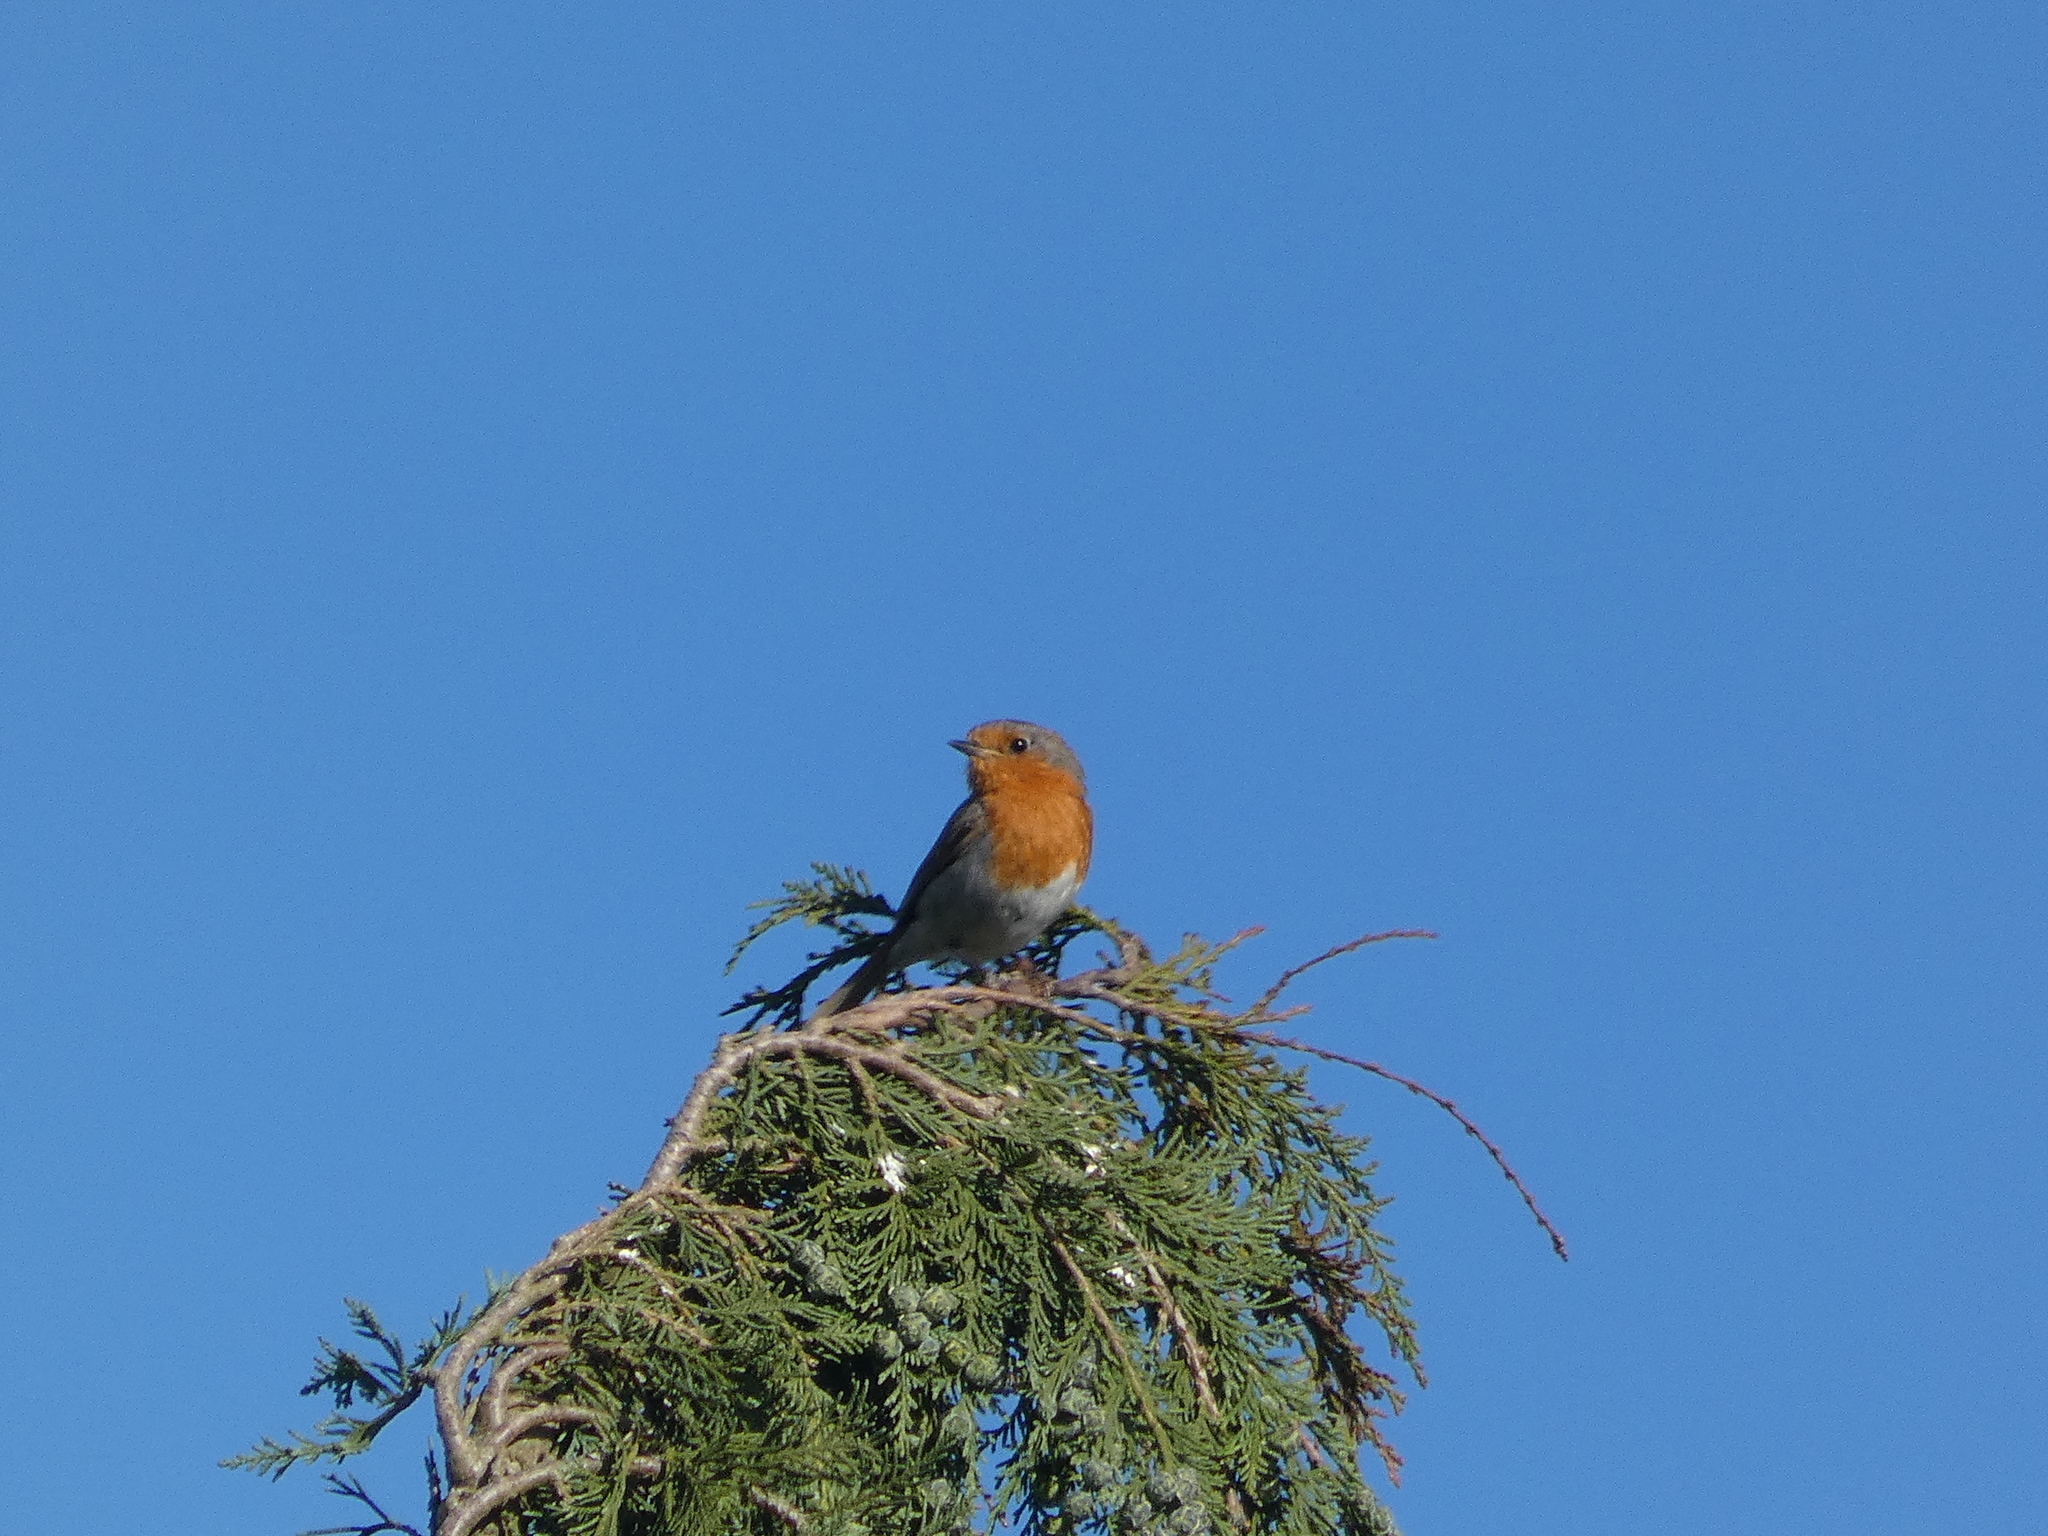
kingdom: Animalia
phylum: Chordata
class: Aves
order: Passeriformes
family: Muscicapidae
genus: Erithacus
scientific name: Erithacus rubecula
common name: European robin
